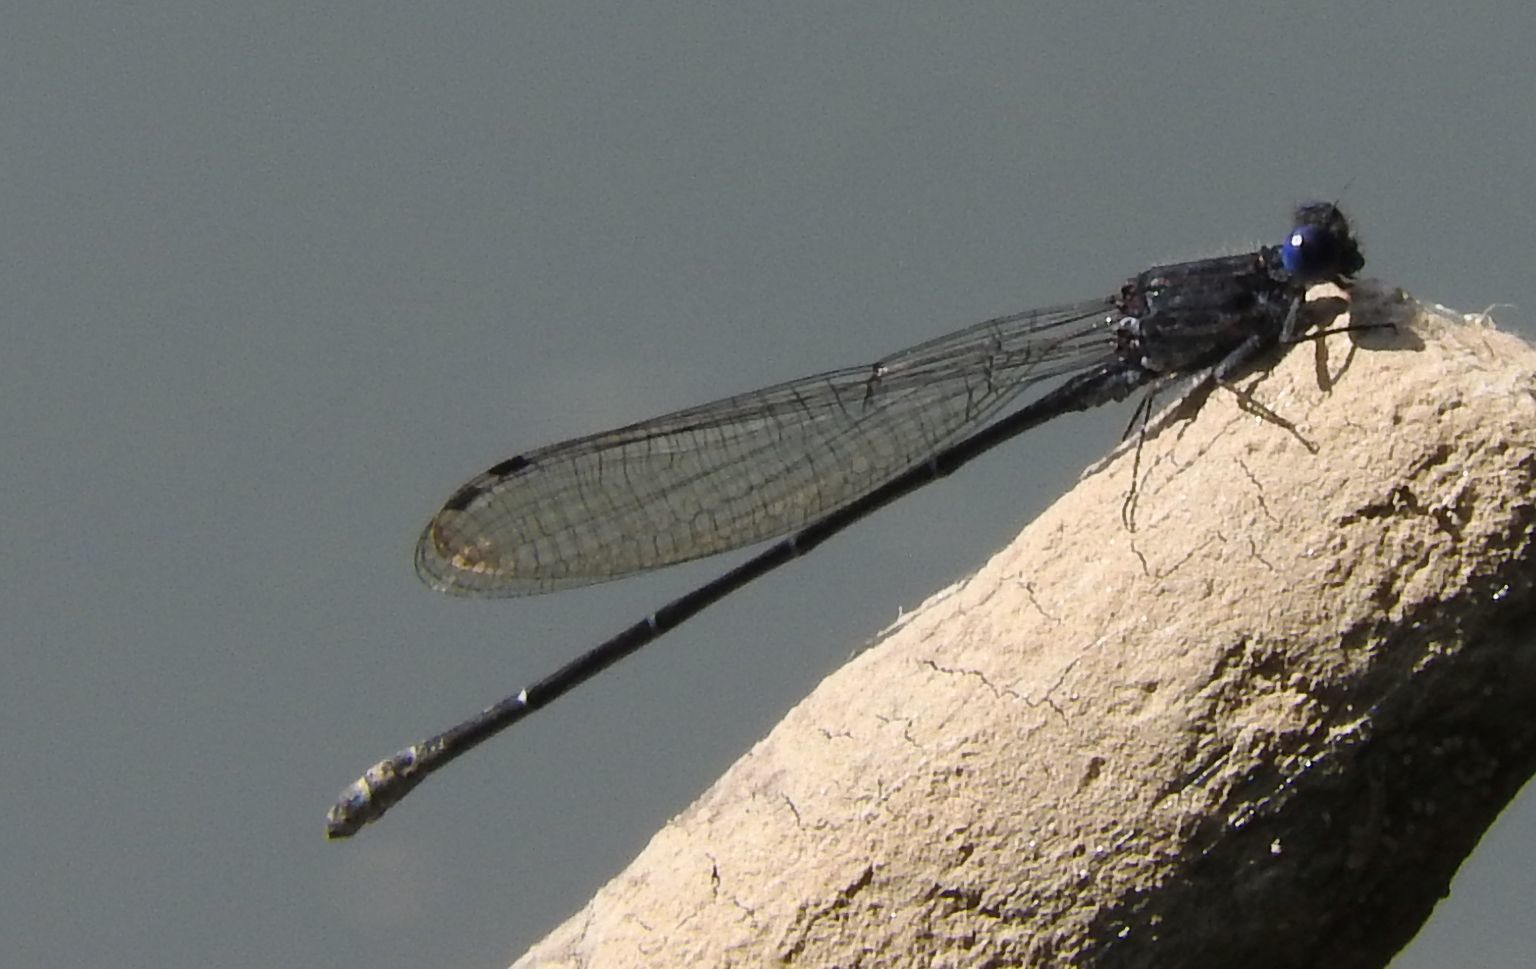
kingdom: Animalia
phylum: Arthropoda
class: Insecta
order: Odonata
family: Coenagrionidae
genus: Argia
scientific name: Argia translata
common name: Dusky dancer
